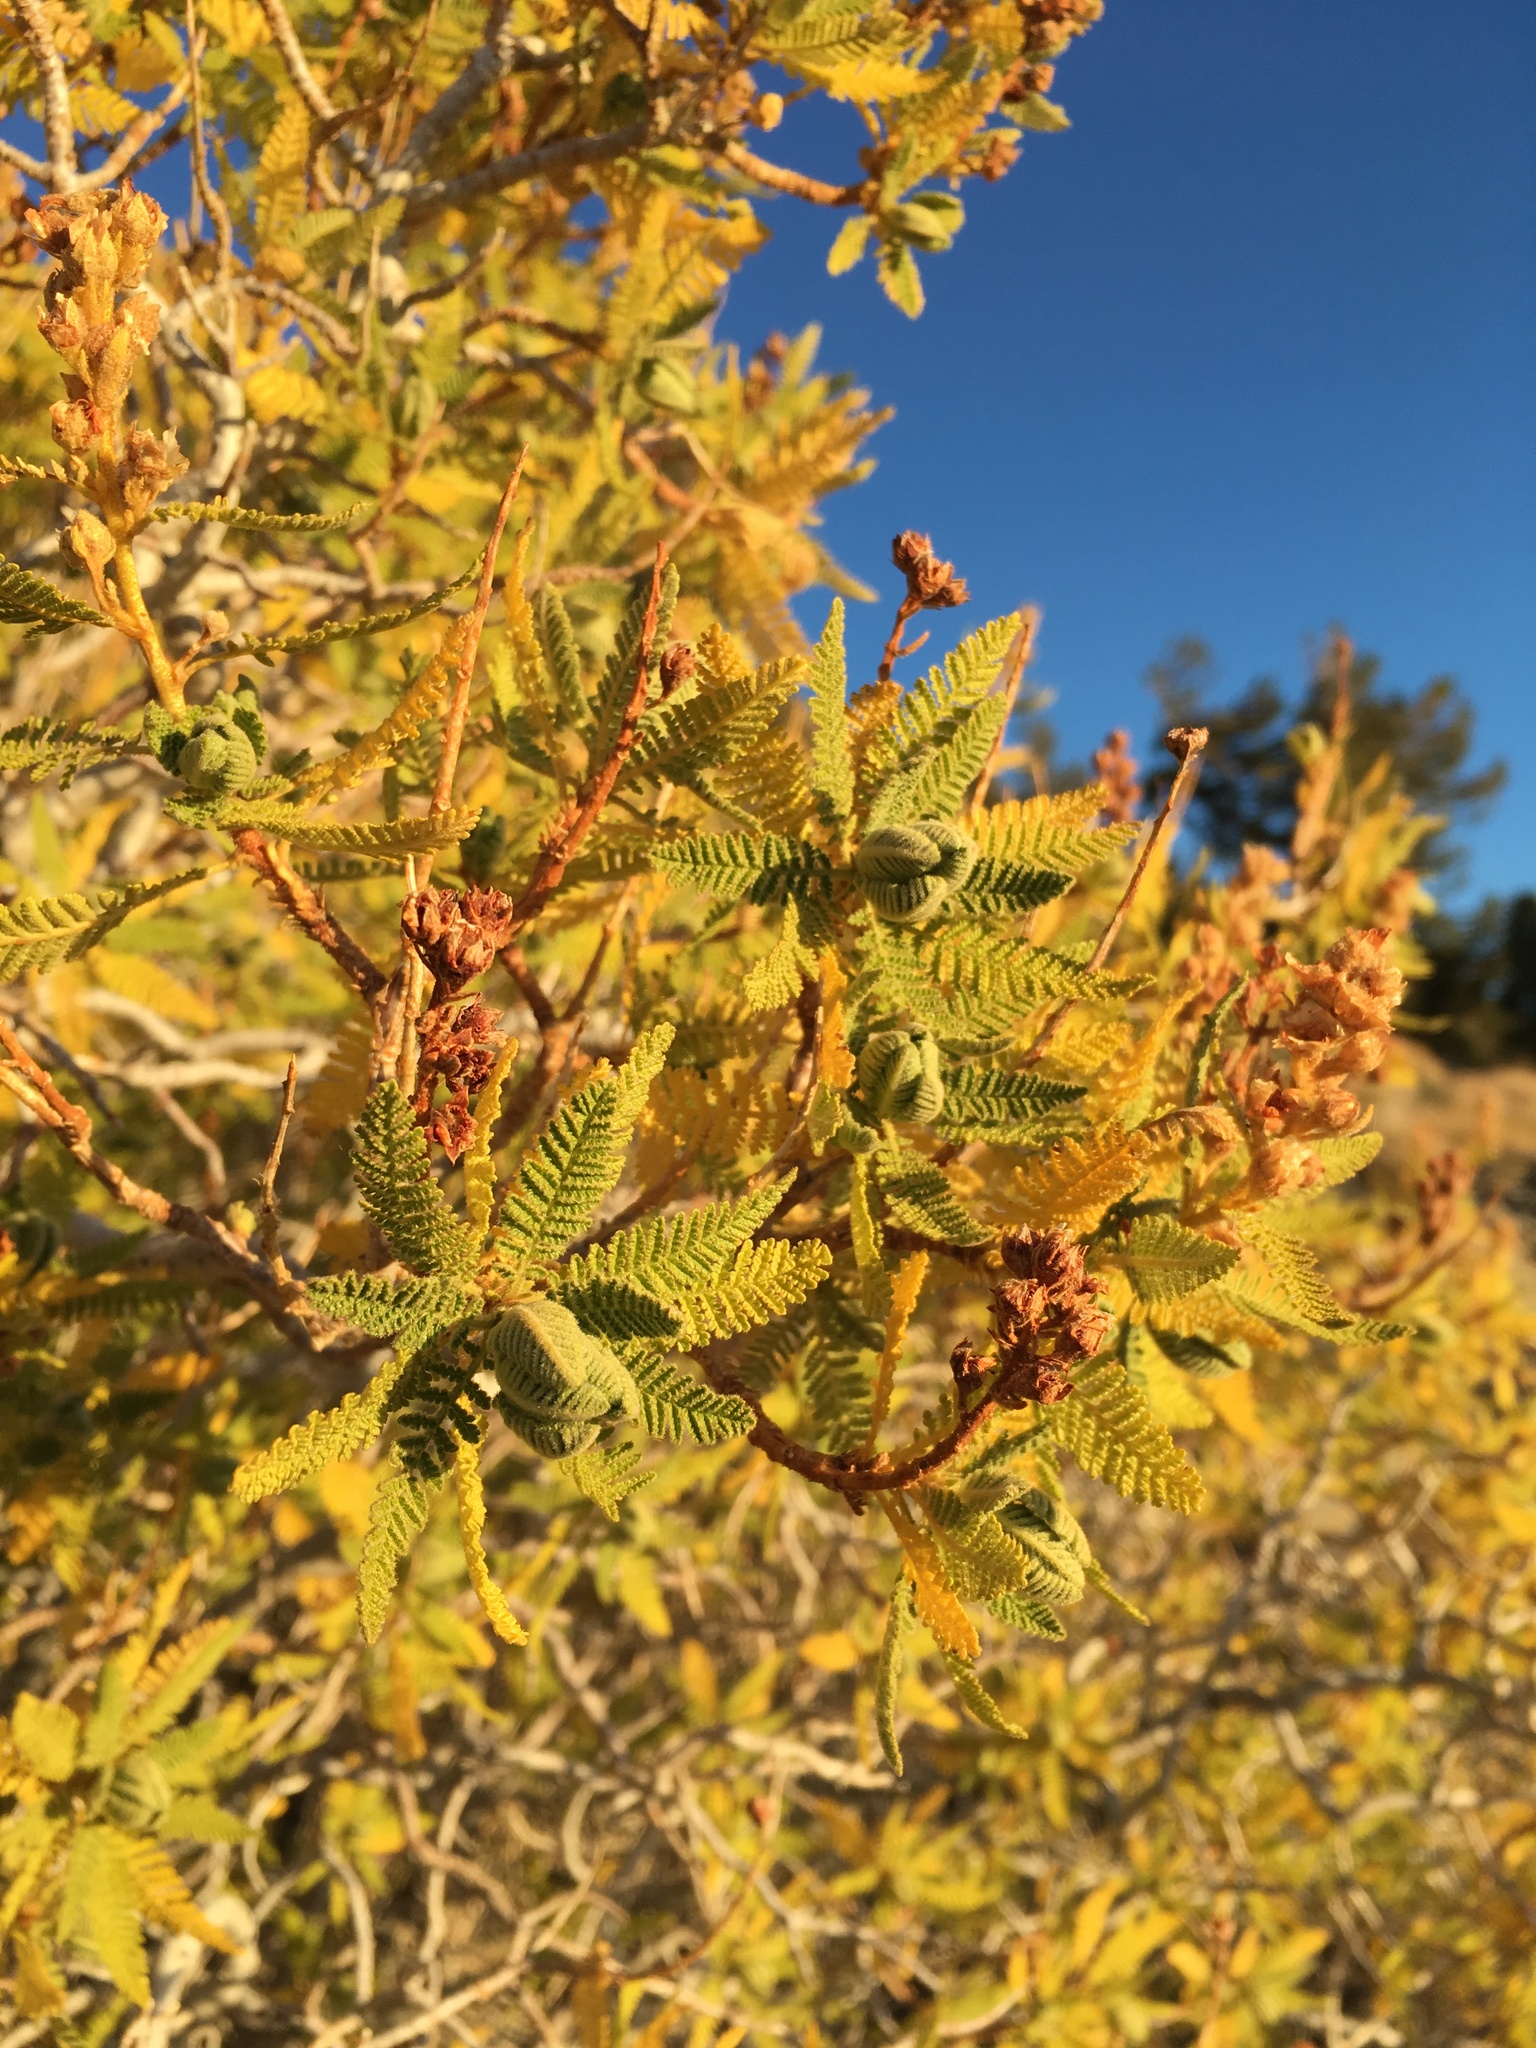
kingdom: Plantae
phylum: Tracheophyta
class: Magnoliopsida
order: Rosales
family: Rosaceae
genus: Chamaebatiaria
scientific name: Chamaebatiaria millefolium
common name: Fernbush
